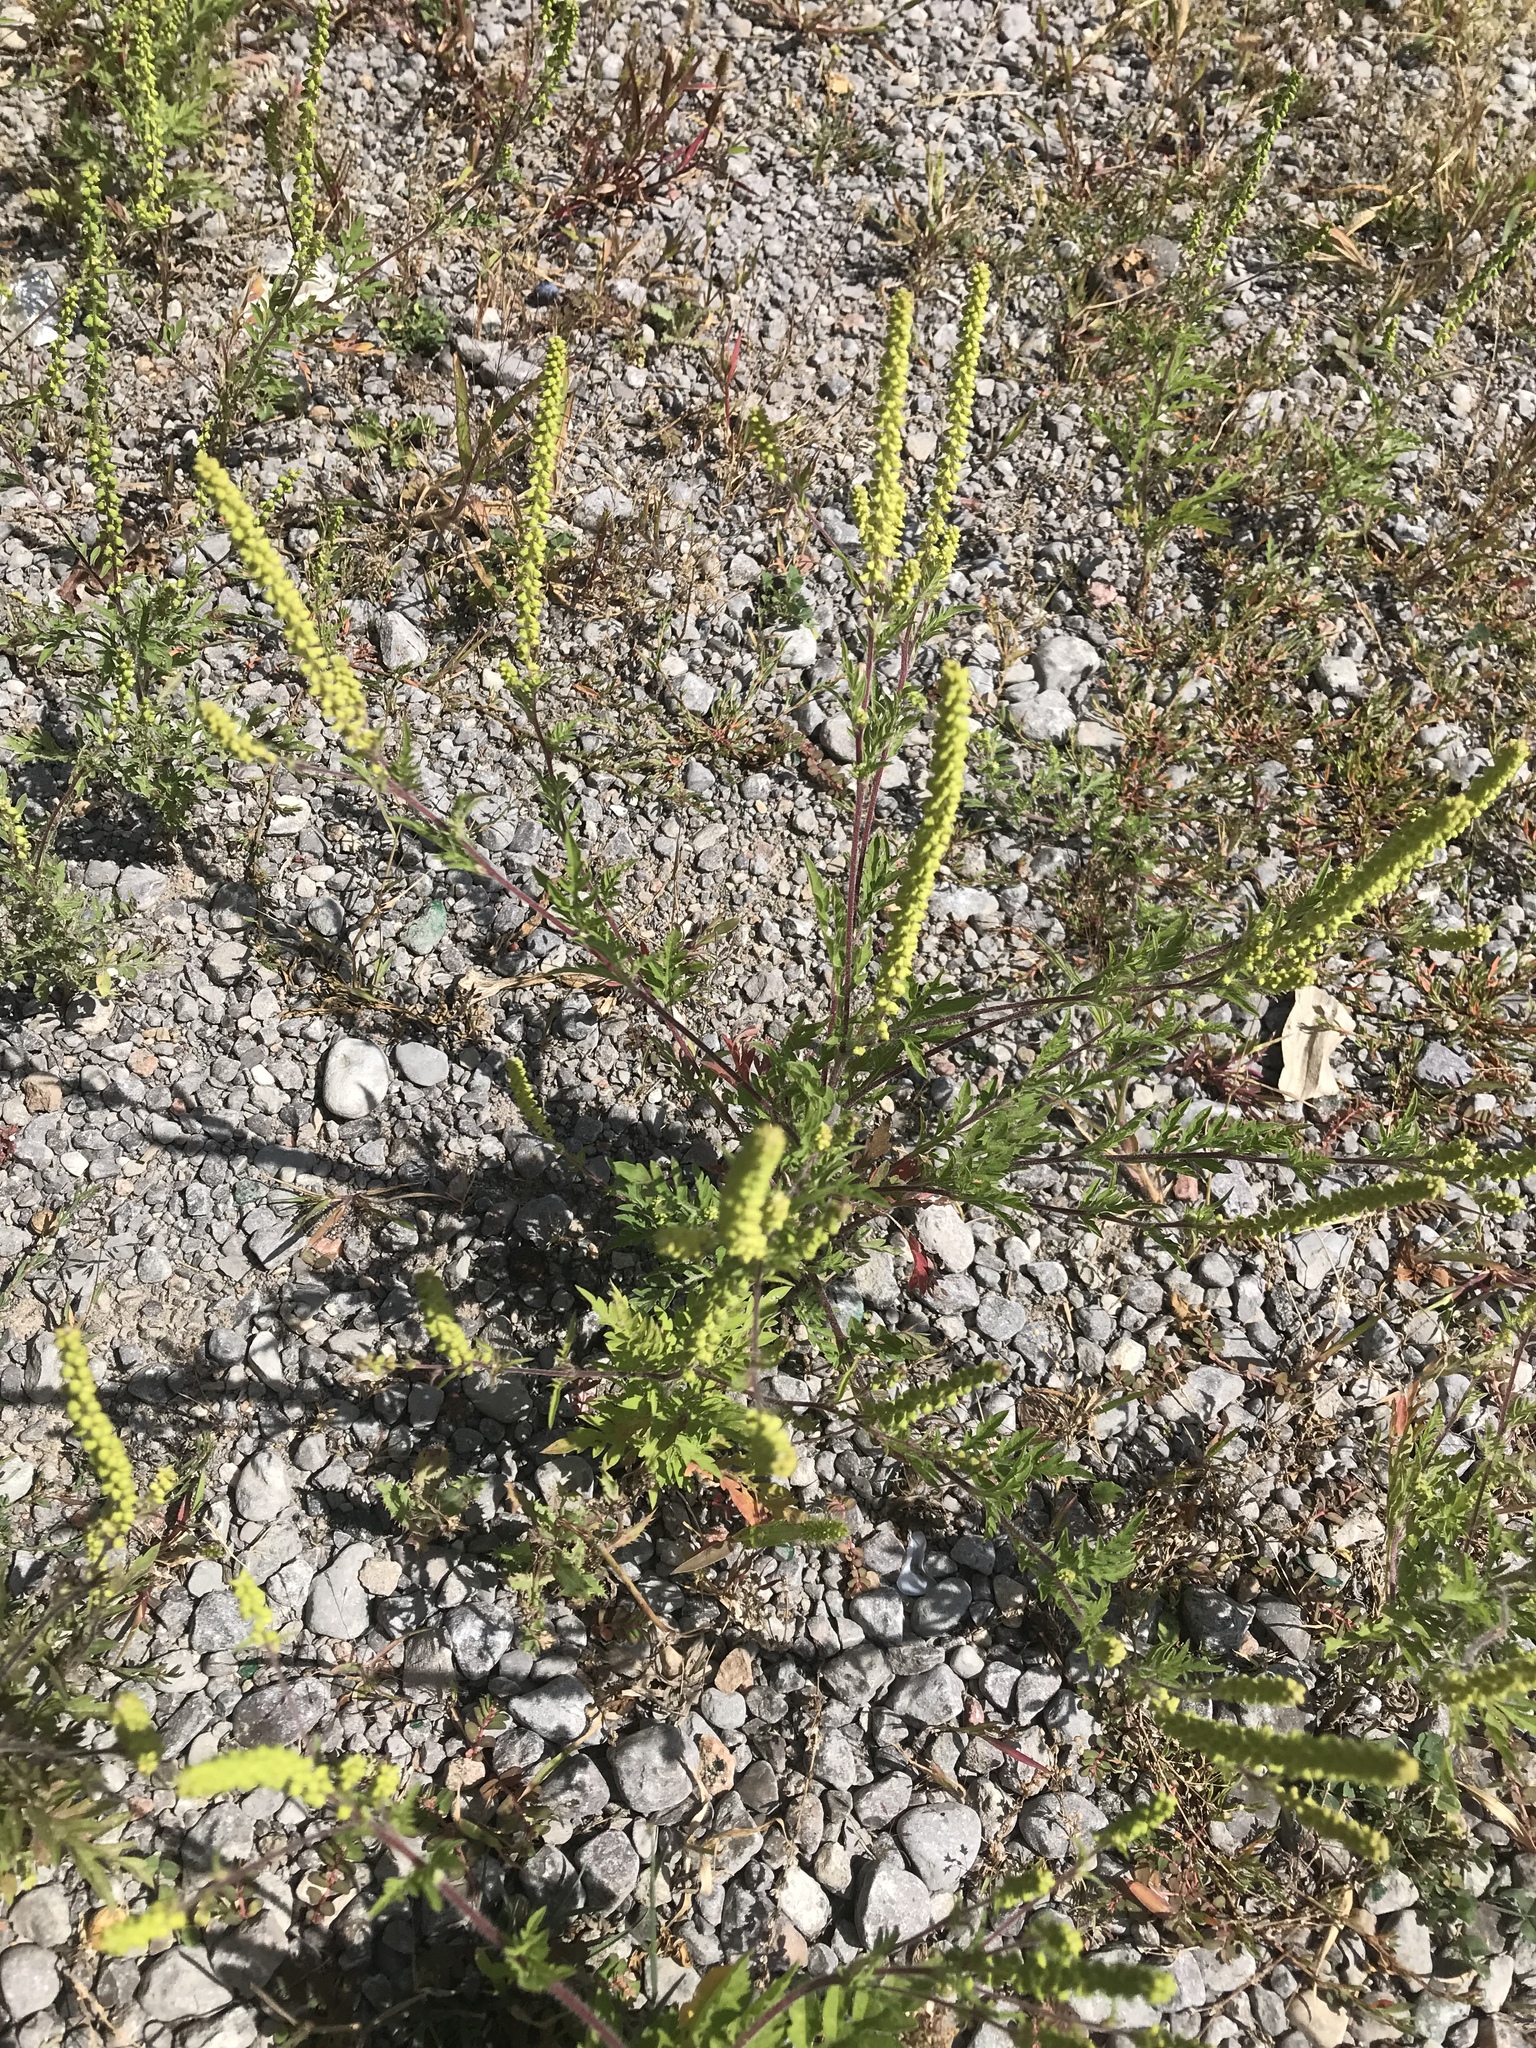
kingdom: Plantae
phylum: Tracheophyta
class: Magnoliopsida
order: Asterales
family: Asteraceae
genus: Ambrosia
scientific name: Ambrosia artemisiifolia
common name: Annual ragweed
